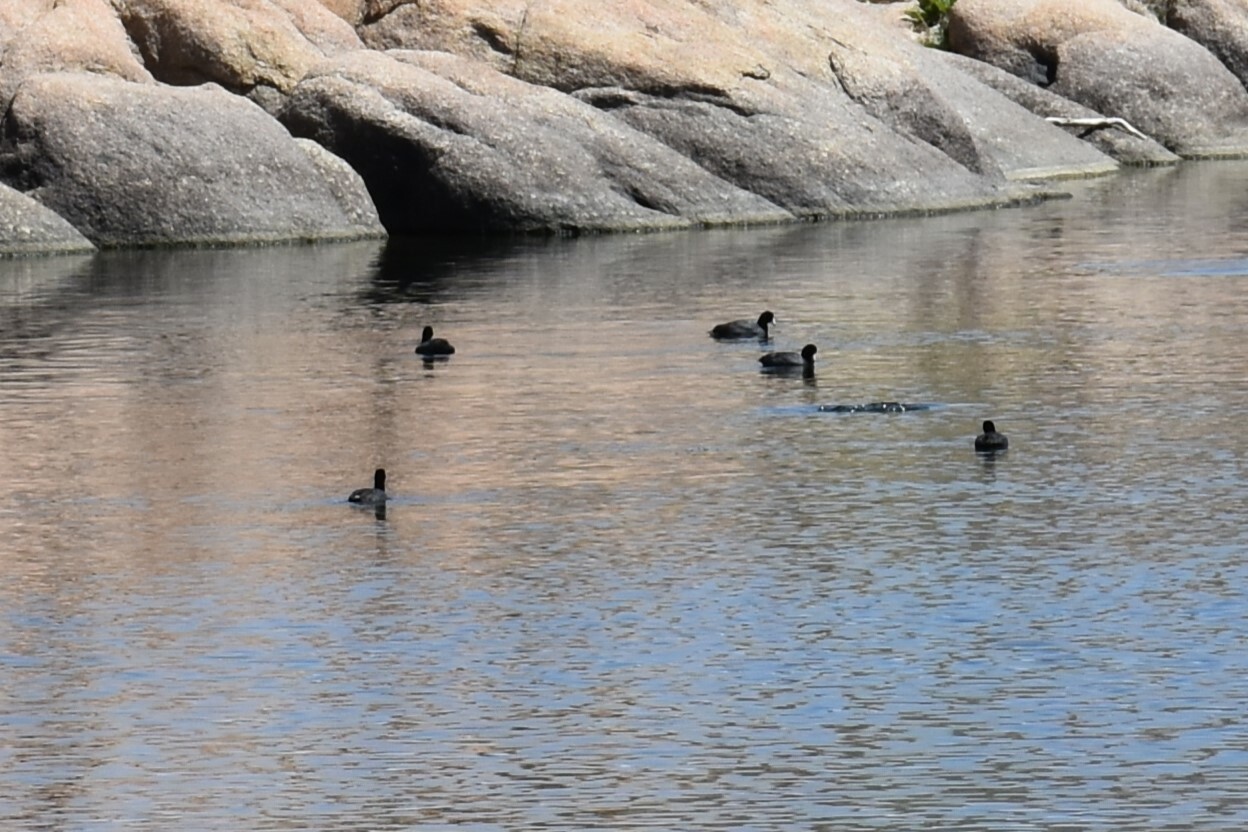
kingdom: Animalia
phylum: Chordata
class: Aves
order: Gruiformes
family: Rallidae
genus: Fulica
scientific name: Fulica americana
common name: American coot
